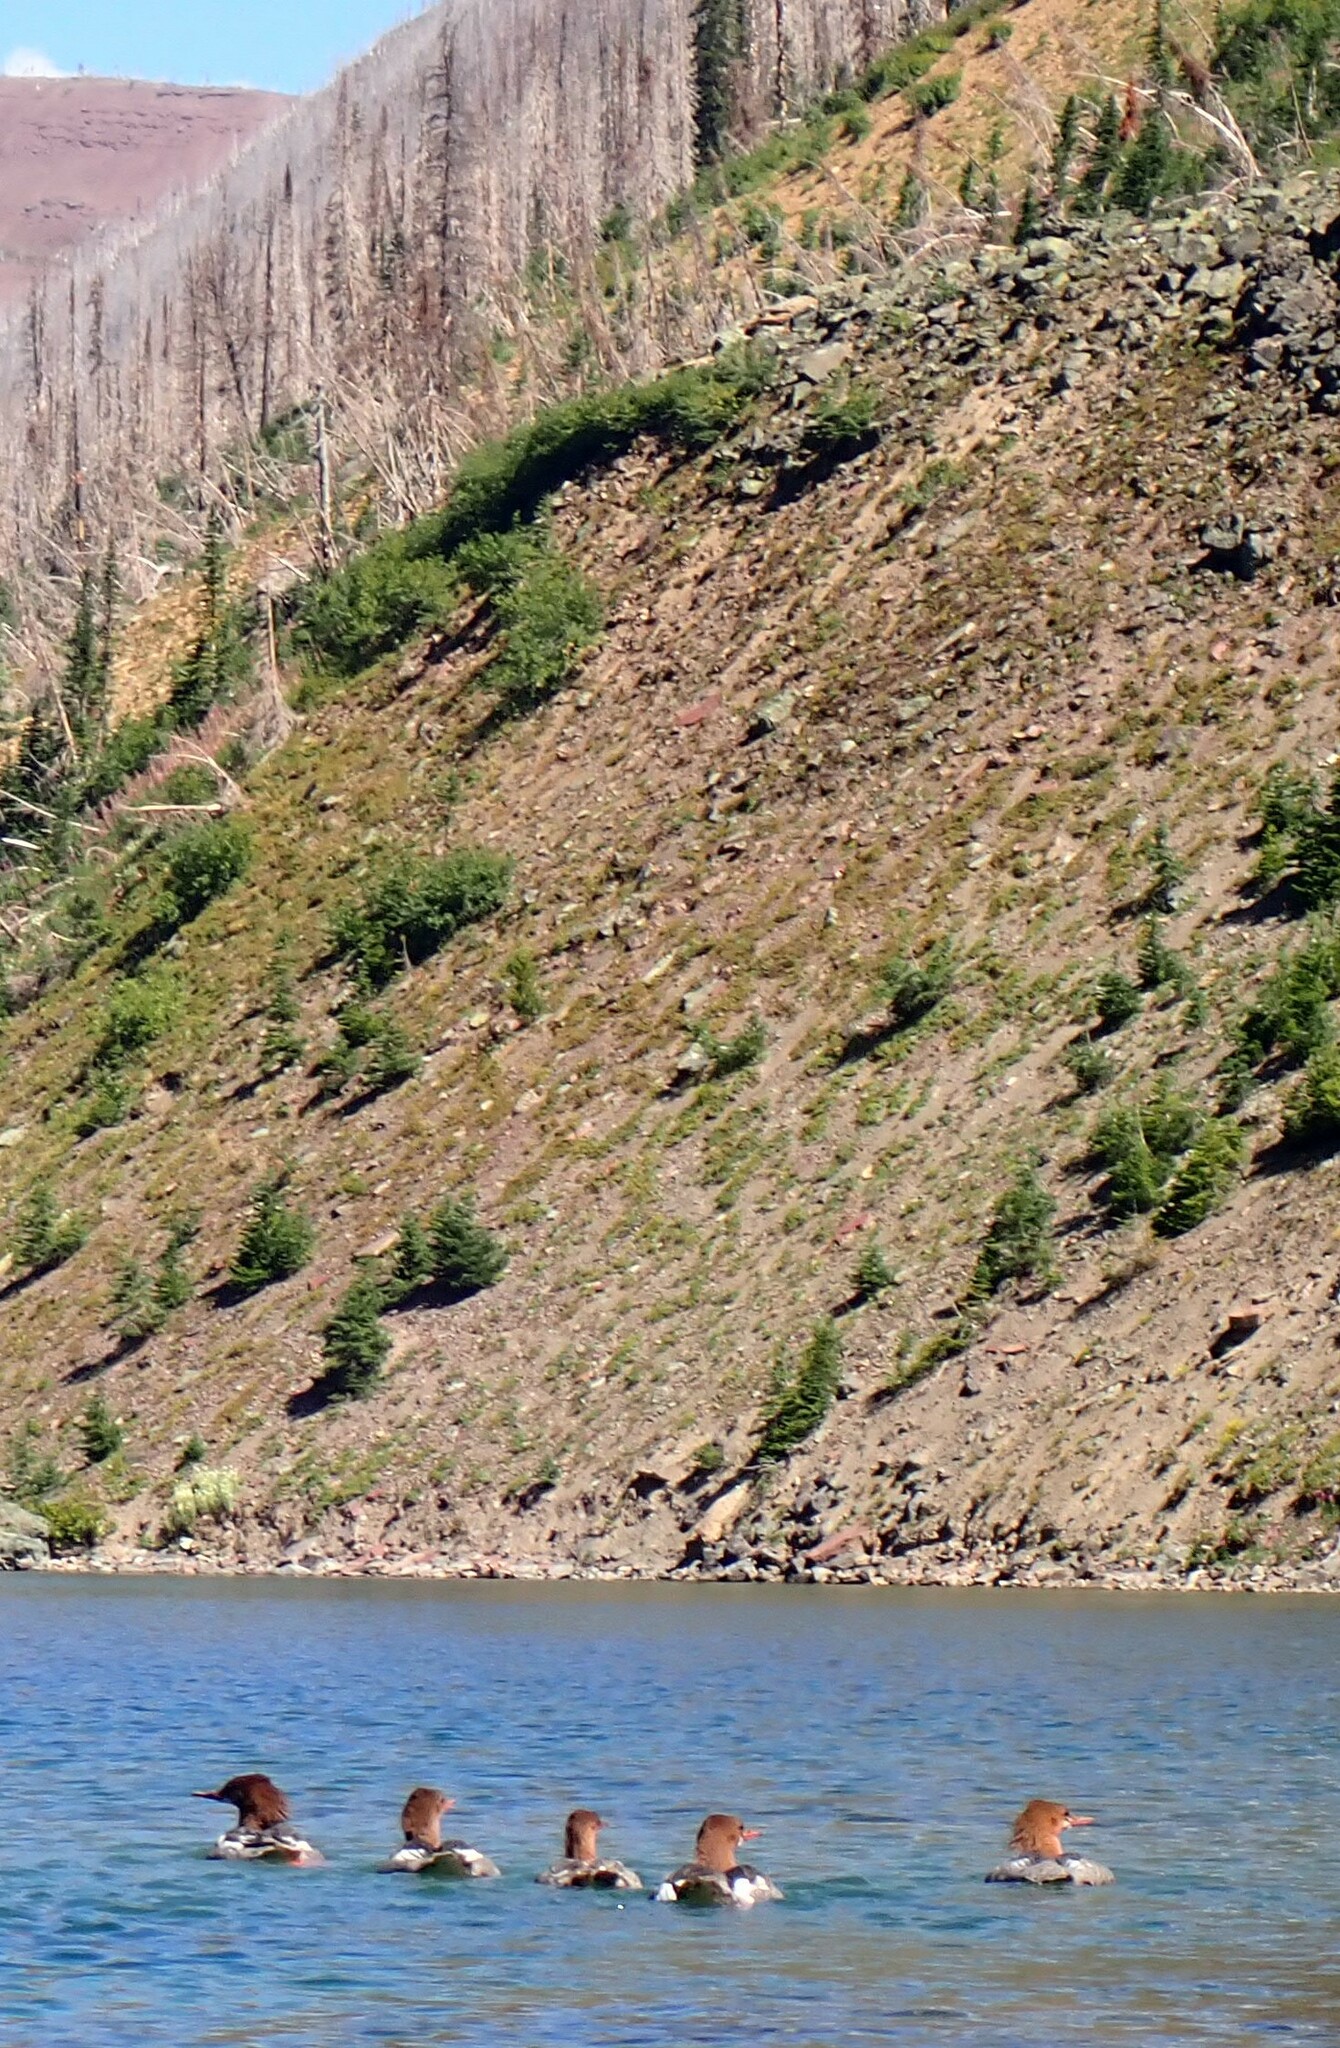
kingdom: Animalia
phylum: Chordata
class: Aves
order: Anseriformes
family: Anatidae
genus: Mergus
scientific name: Mergus merganser
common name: Common merganser
